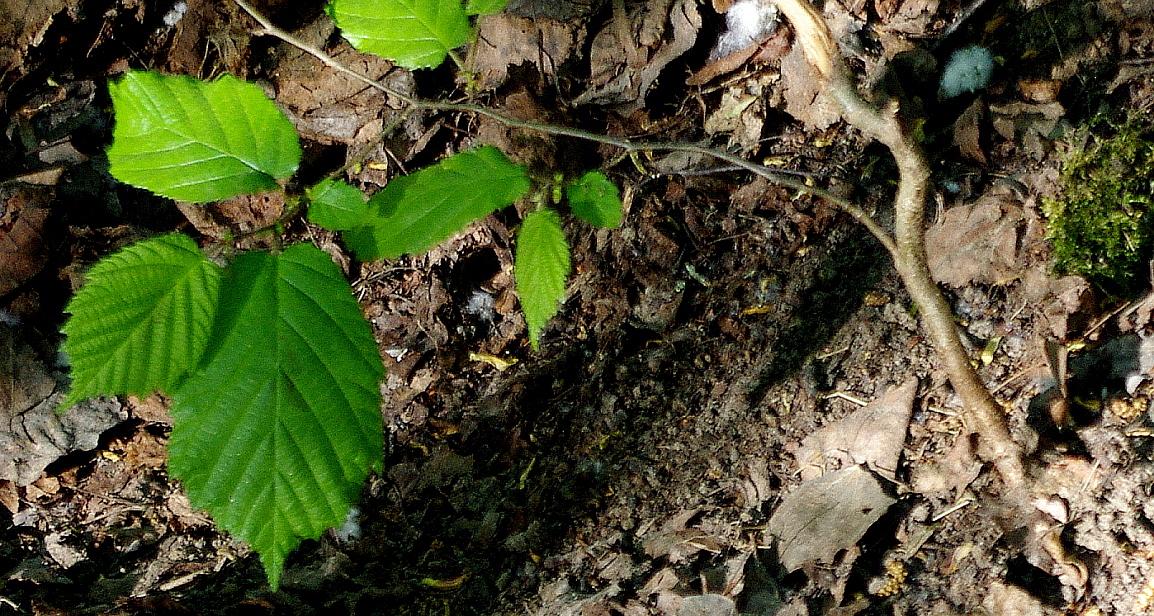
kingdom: Plantae
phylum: Tracheophyta
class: Magnoliopsida
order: Fagales
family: Betulaceae
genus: Corylus
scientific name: Corylus avellana
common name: European hazel
